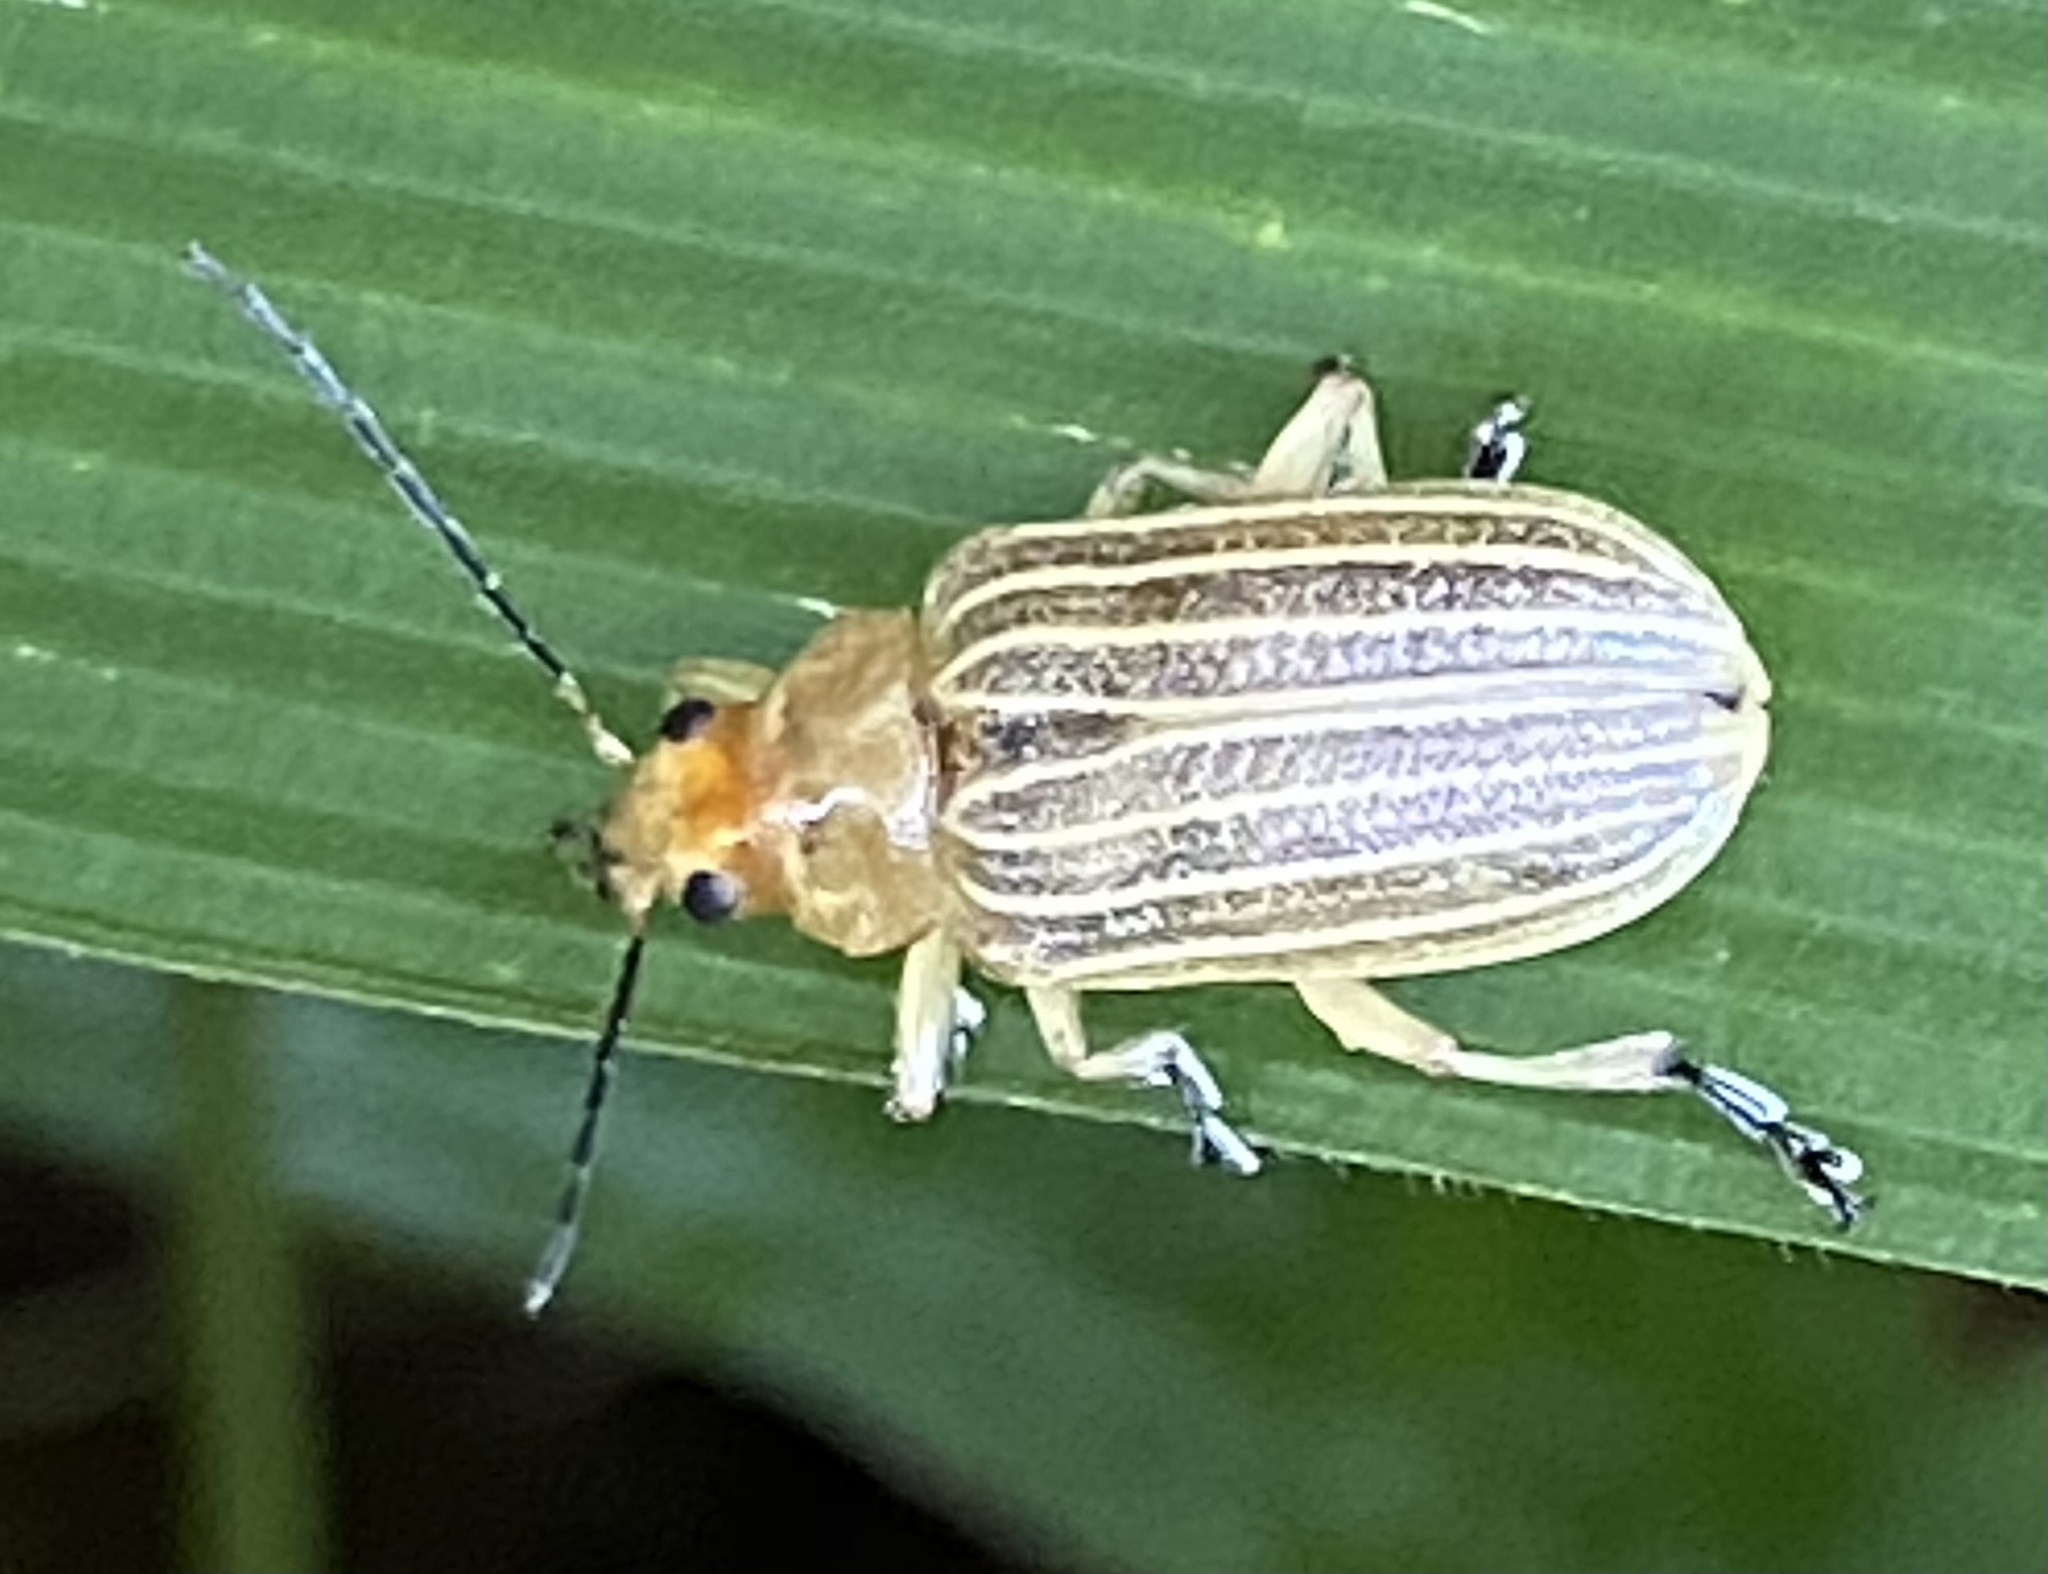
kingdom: Animalia
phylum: Arthropoda
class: Insecta
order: Coleoptera
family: Chrysomelidae
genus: Metaxyonycha
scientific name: Metaxyonycha
